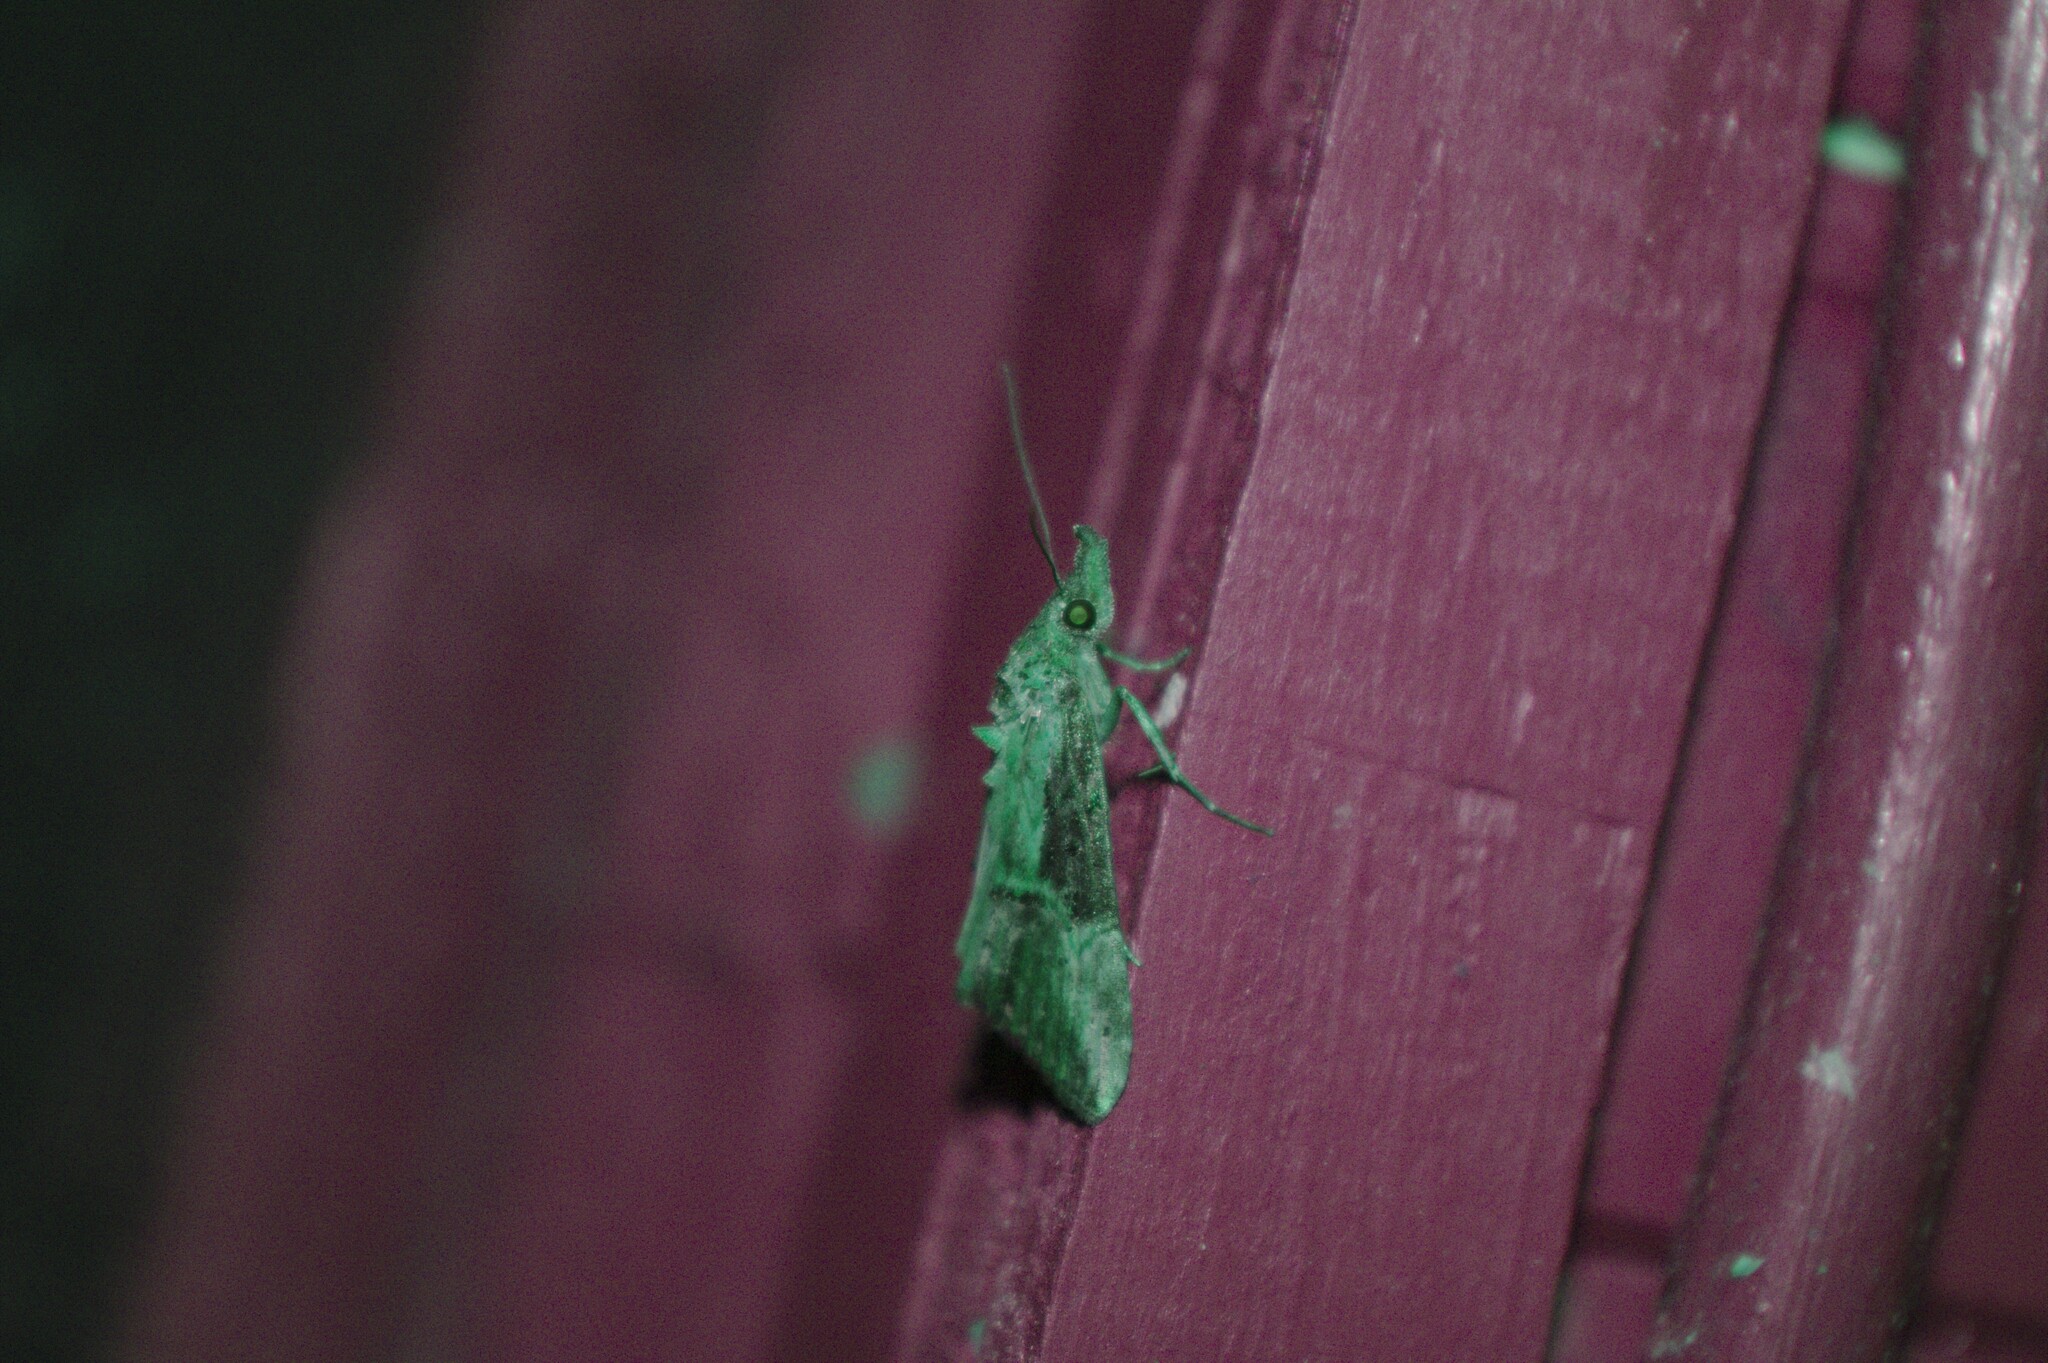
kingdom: Animalia
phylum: Arthropoda
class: Insecta
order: Lepidoptera
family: Erebidae
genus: Hypena
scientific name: Hypena scabra
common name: Green cloverworm
